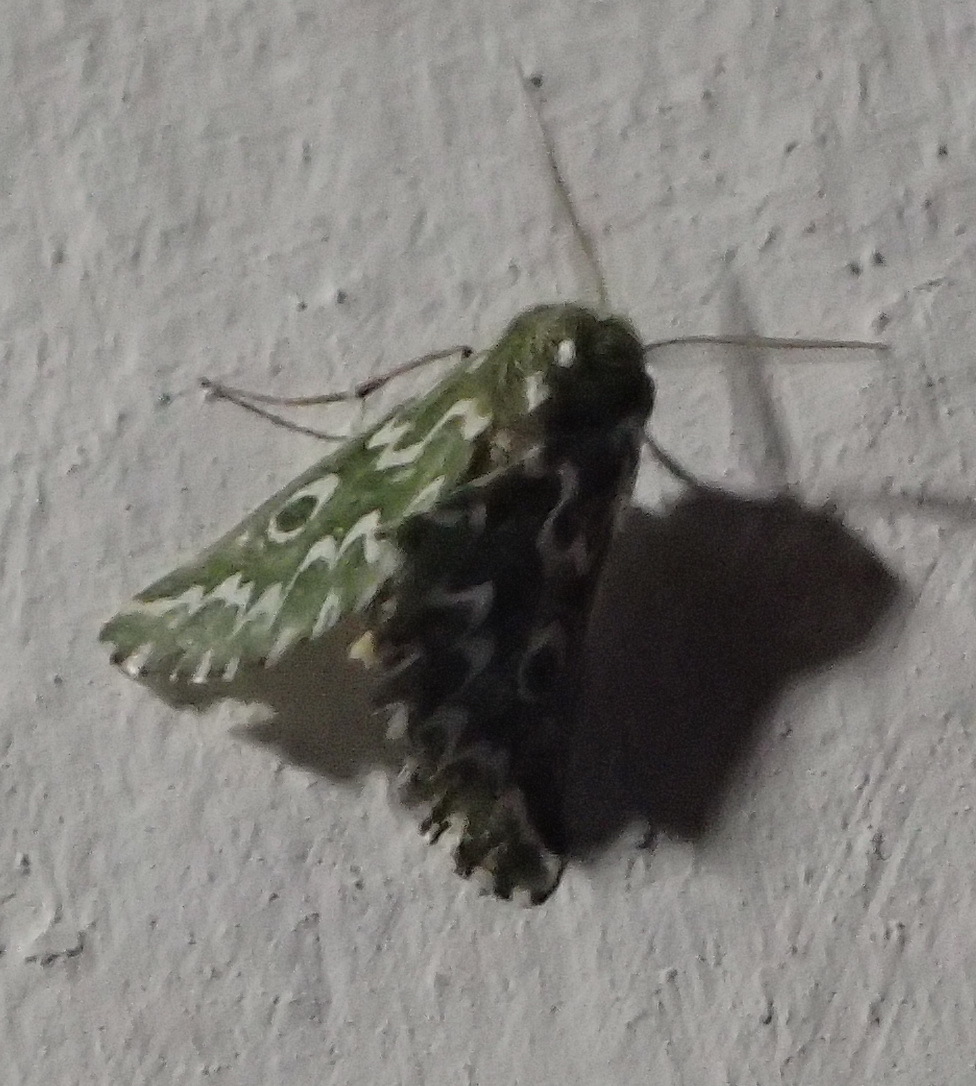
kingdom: Animalia
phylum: Arthropoda
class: Insecta
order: Lepidoptera
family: Geometridae
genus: Axiodes
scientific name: Axiodes bifasciata
